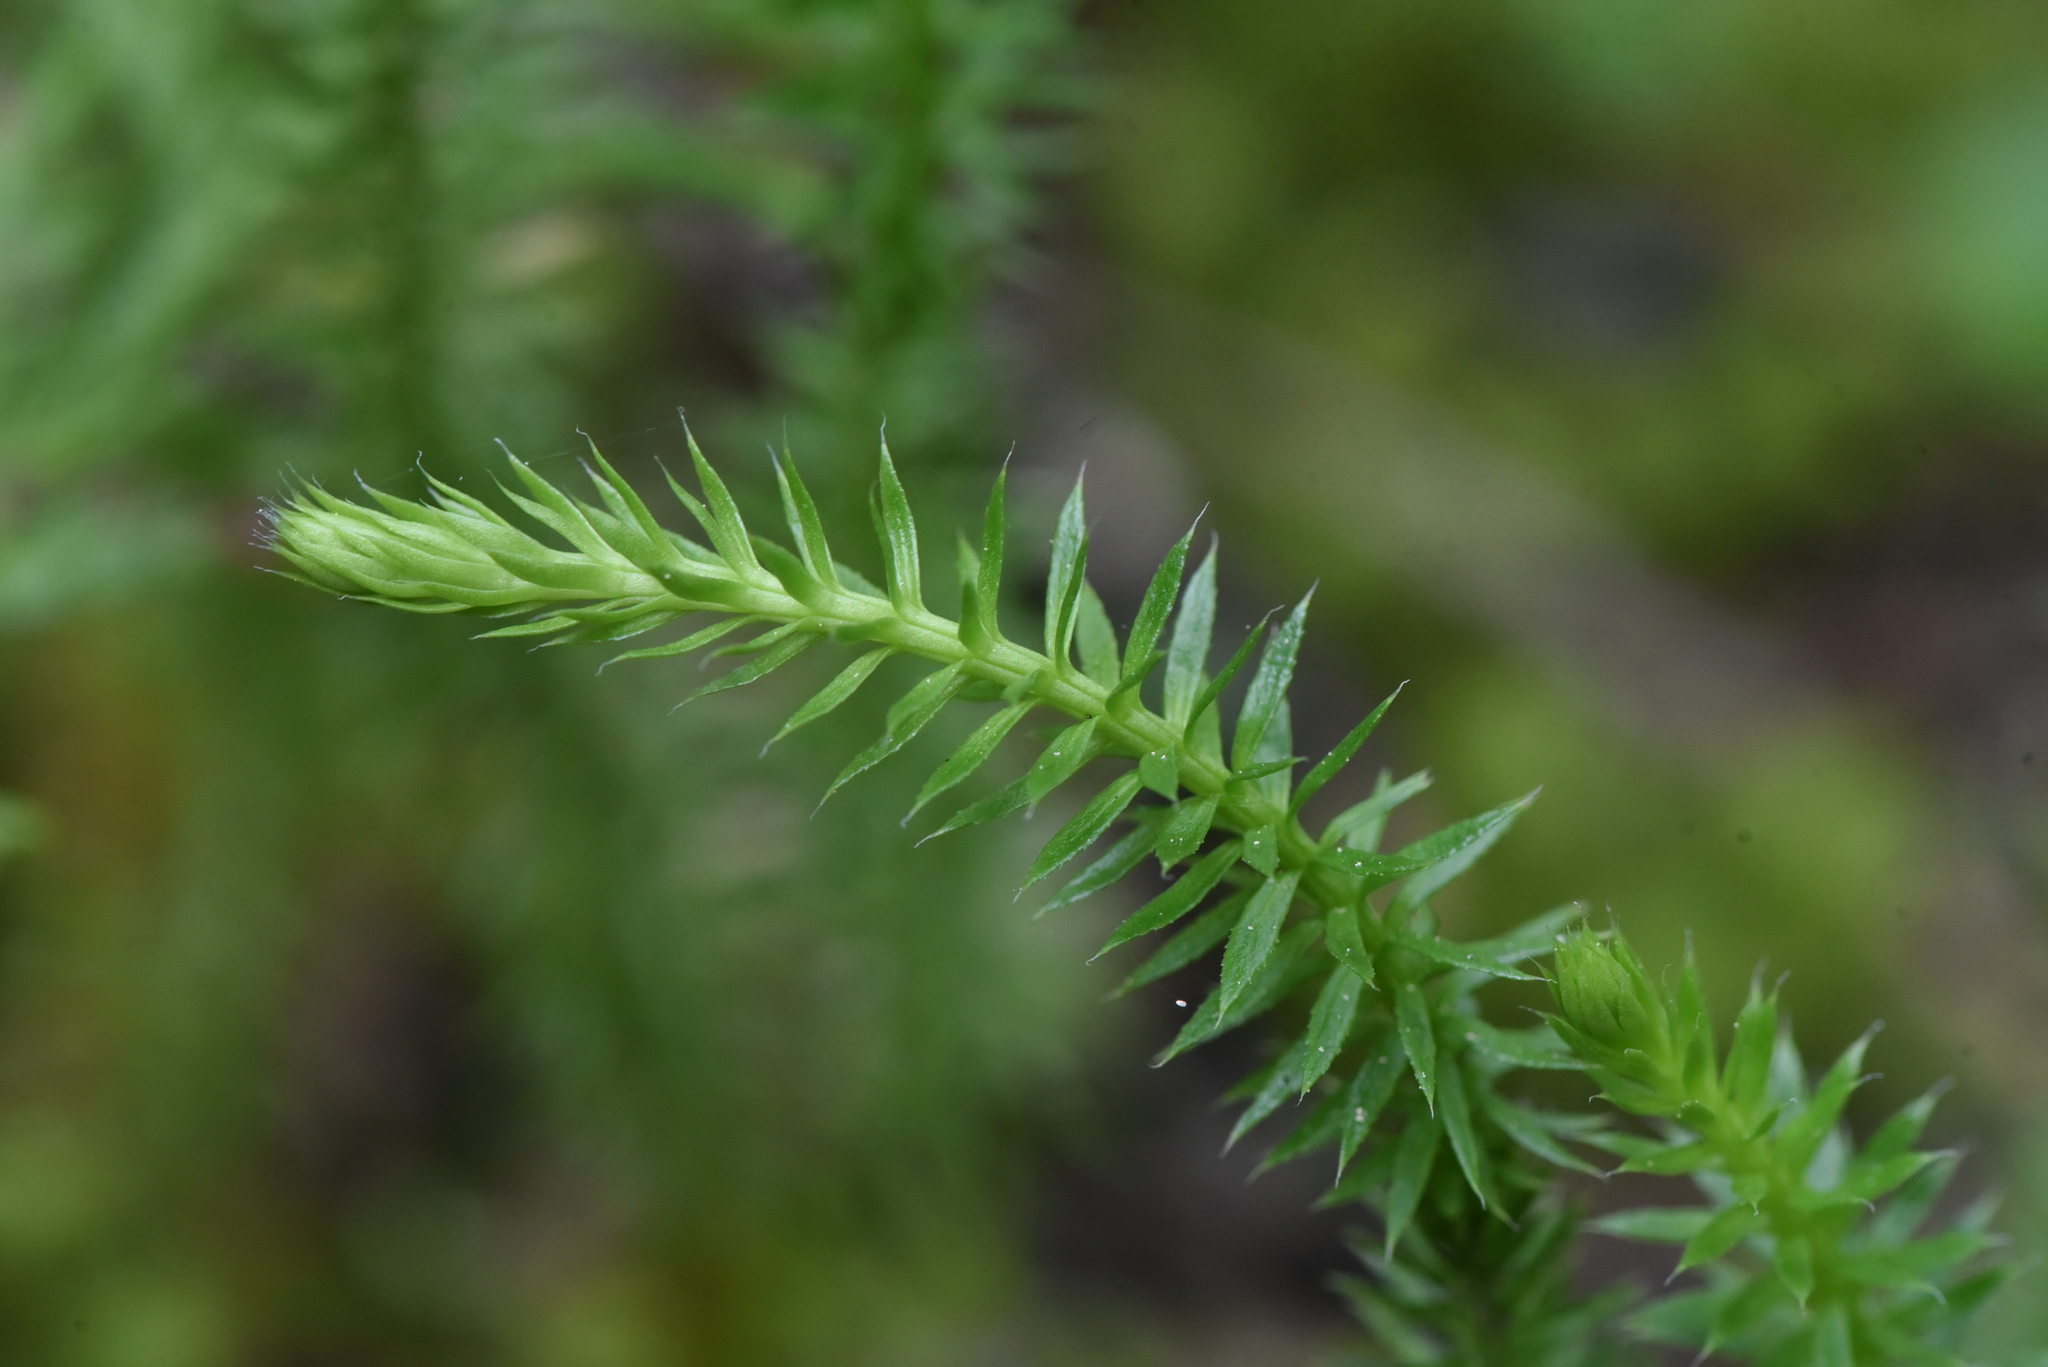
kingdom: Plantae
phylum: Tracheophyta
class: Lycopodiopsida
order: Lycopodiales
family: Lycopodiaceae
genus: Spinulum
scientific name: Spinulum annotinum
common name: Interrupted club-moss
